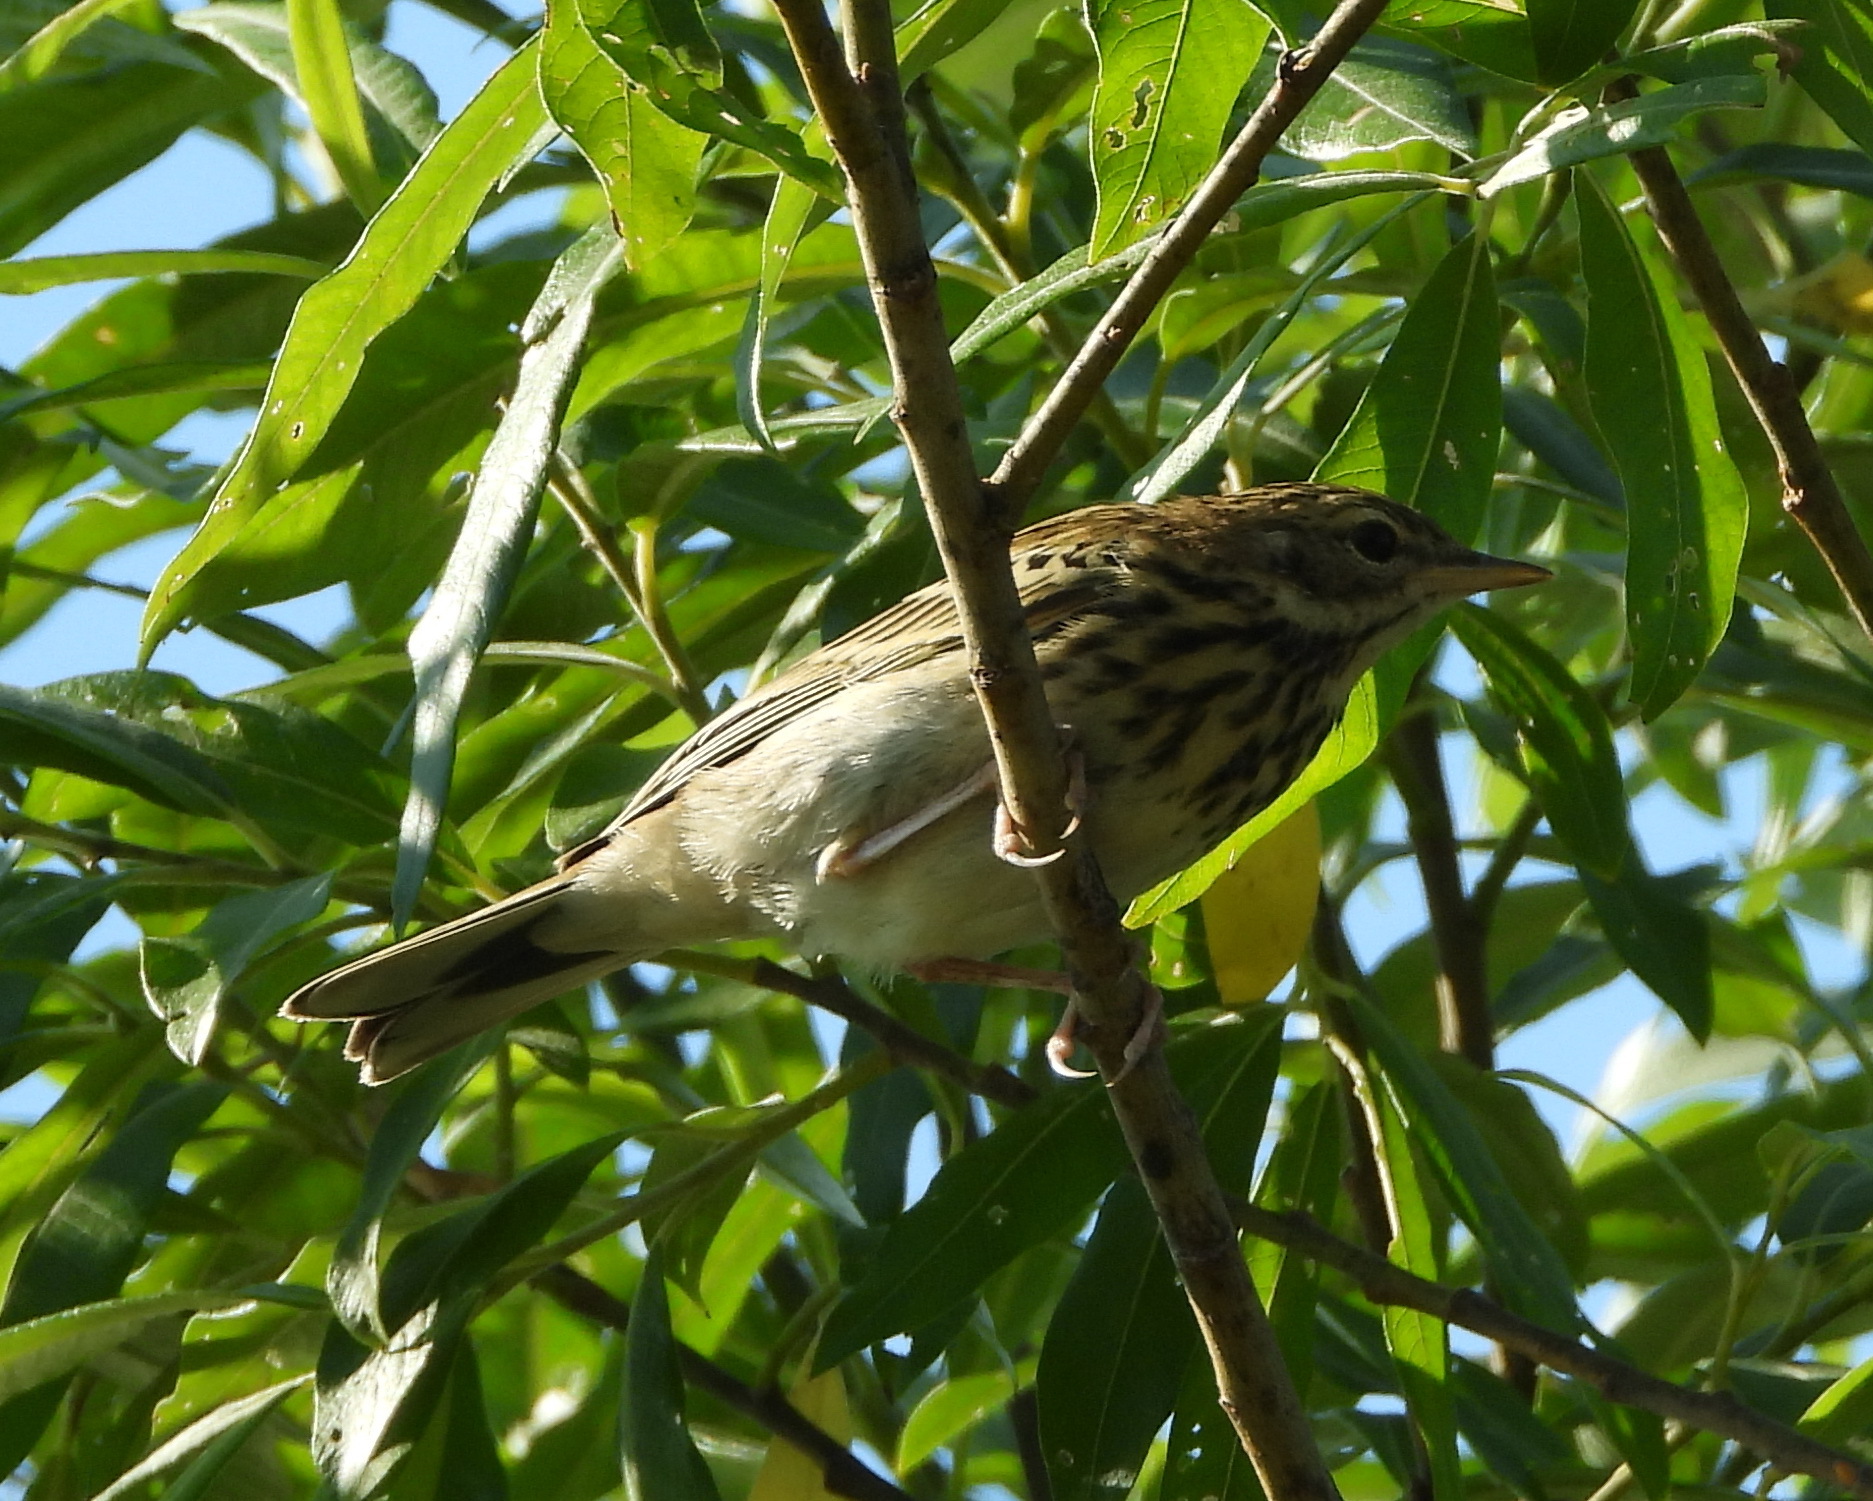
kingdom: Animalia
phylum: Chordata
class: Aves
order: Passeriformes
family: Motacillidae
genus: Anthus
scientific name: Anthus trivialis
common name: Tree pipit
